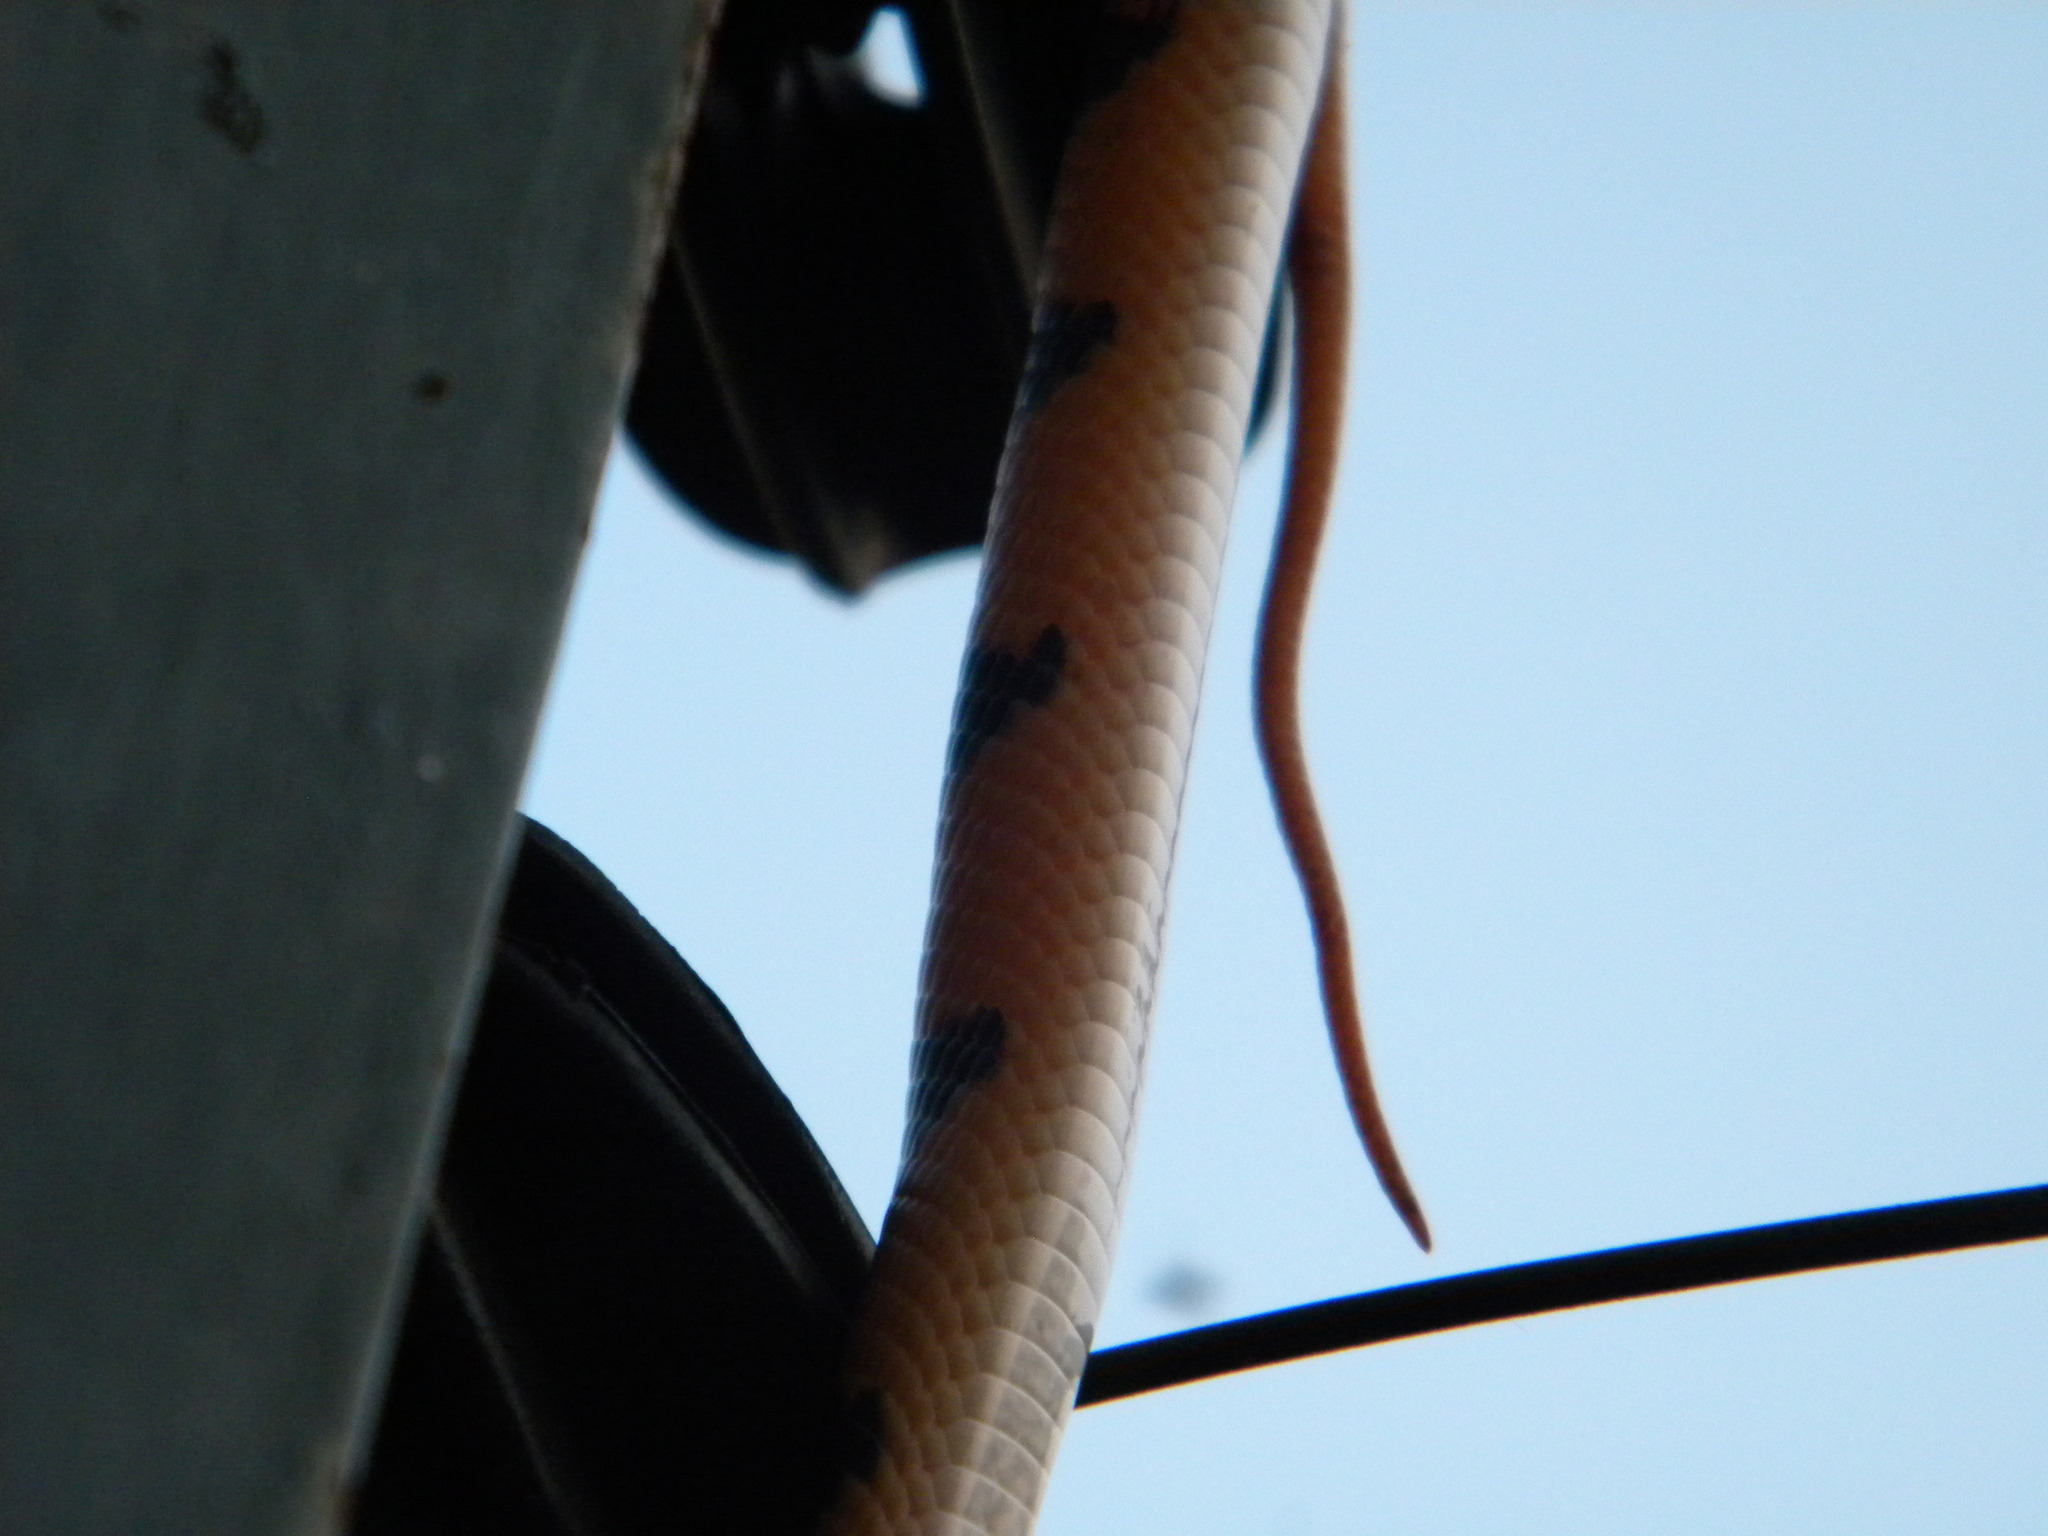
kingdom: Animalia
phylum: Chordata
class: Squamata
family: Colubridae
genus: Telescopus
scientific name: Telescopus semiannulatus
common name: Common tiger snake
